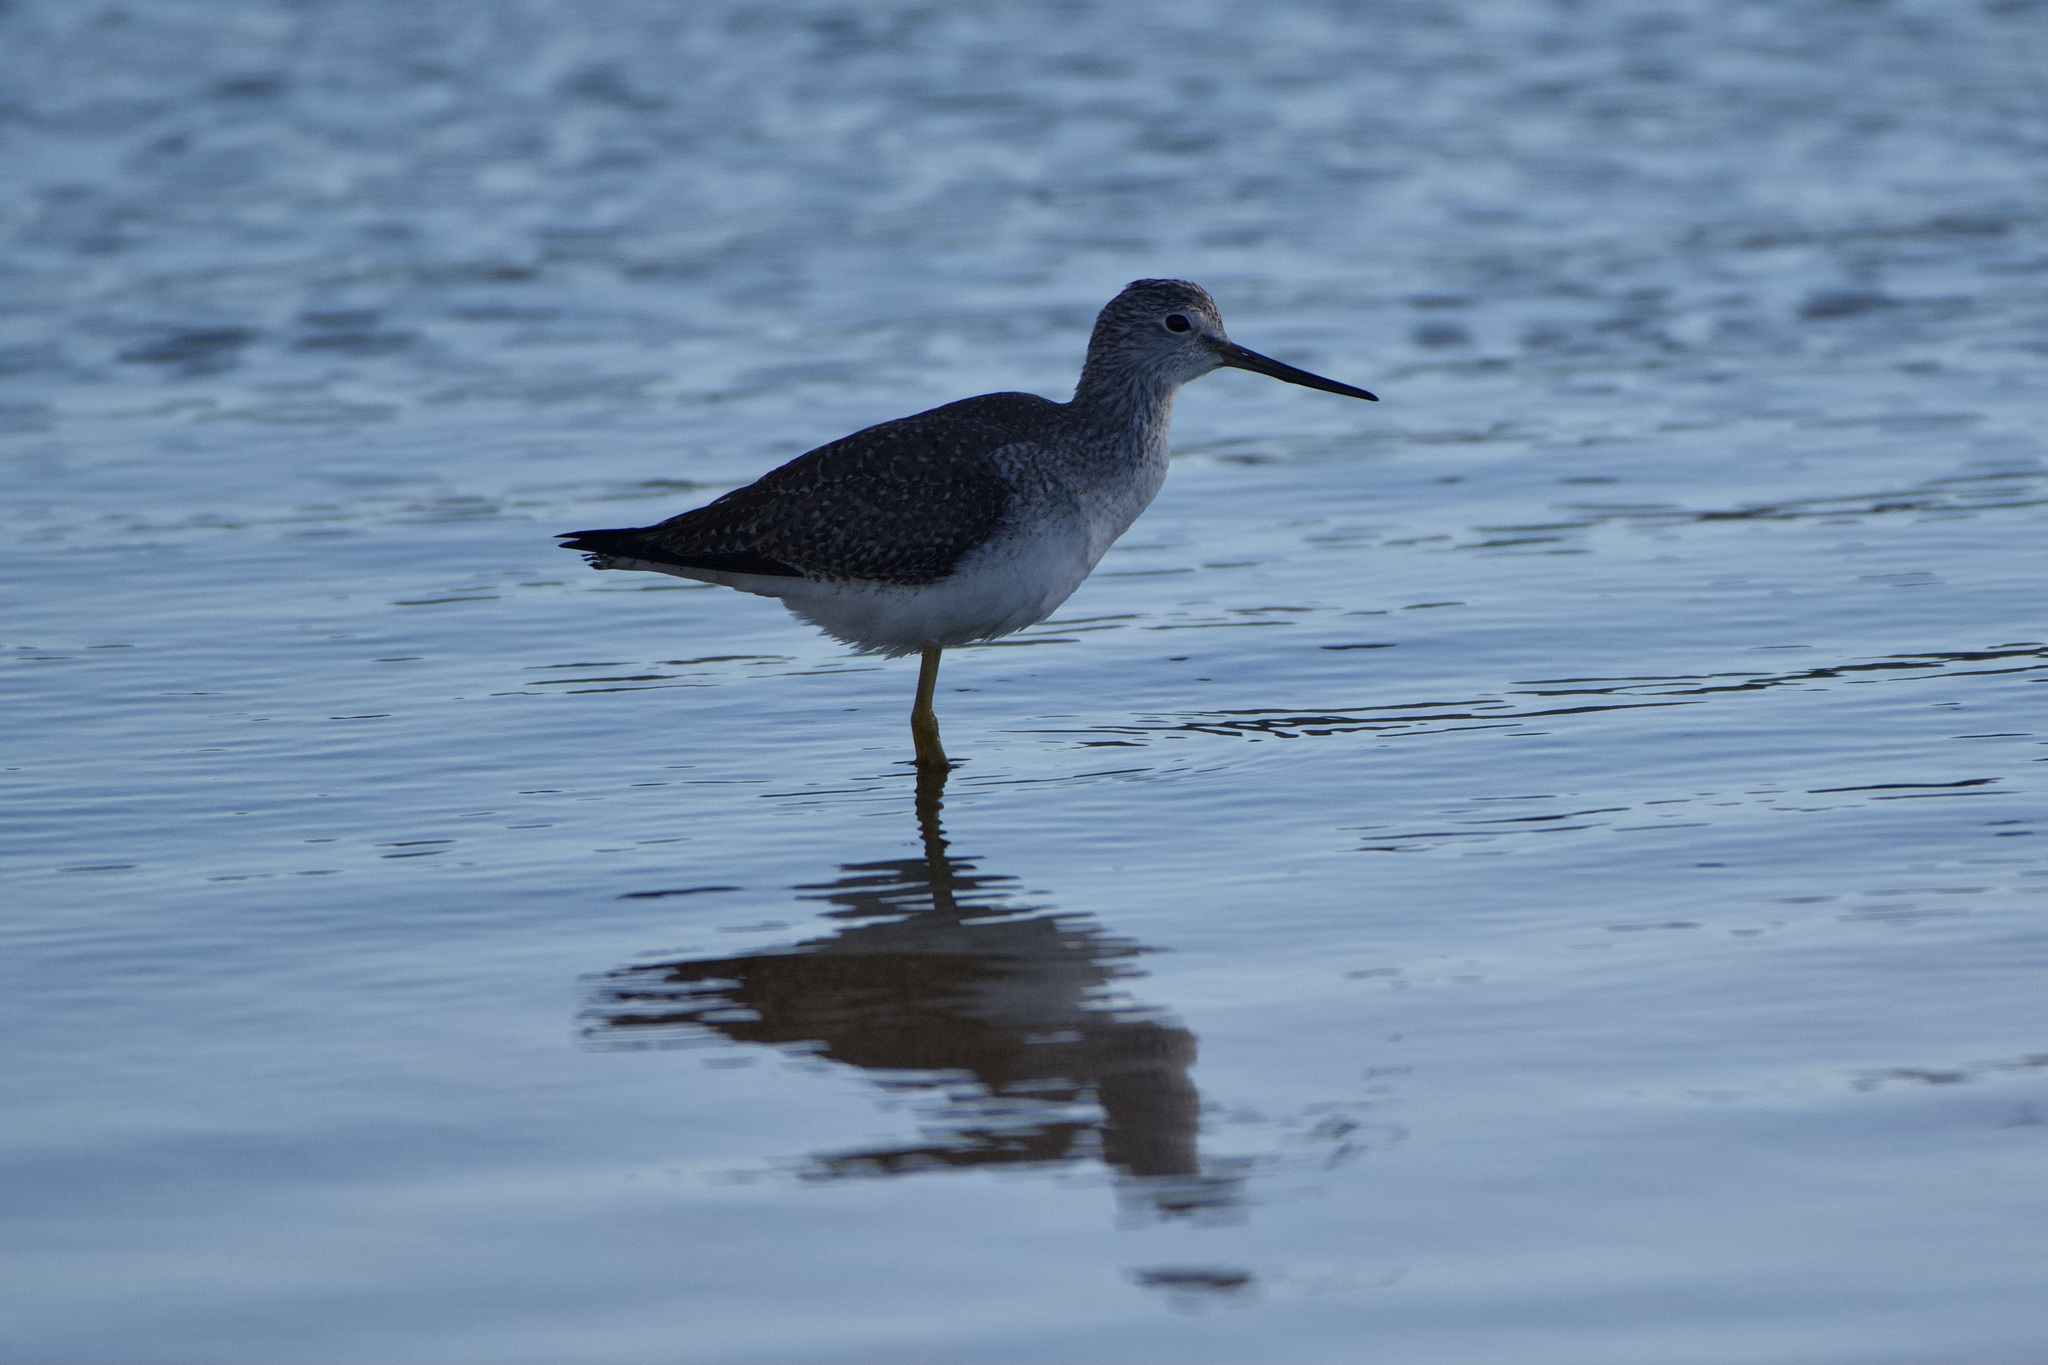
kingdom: Animalia
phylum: Chordata
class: Aves
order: Charadriiformes
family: Scolopacidae
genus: Tringa
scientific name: Tringa melanoleuca
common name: Greater yellowlegs
